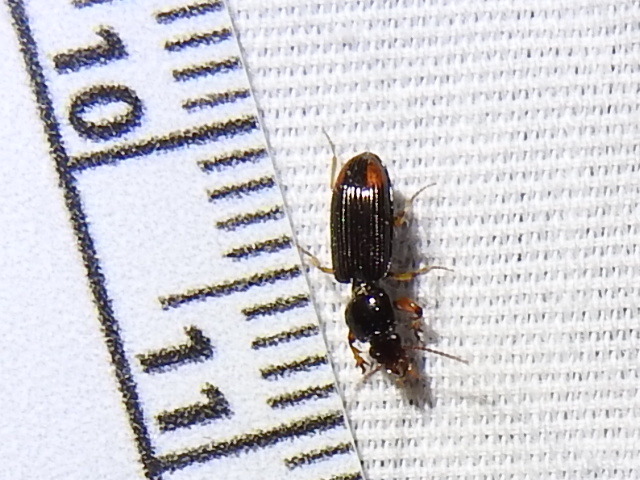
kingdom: Animalia
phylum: Arthropoda
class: Insecta
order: Coleoptera
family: Carabidae
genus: Aspidoglossa
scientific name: Aspidoglossa subangulata
